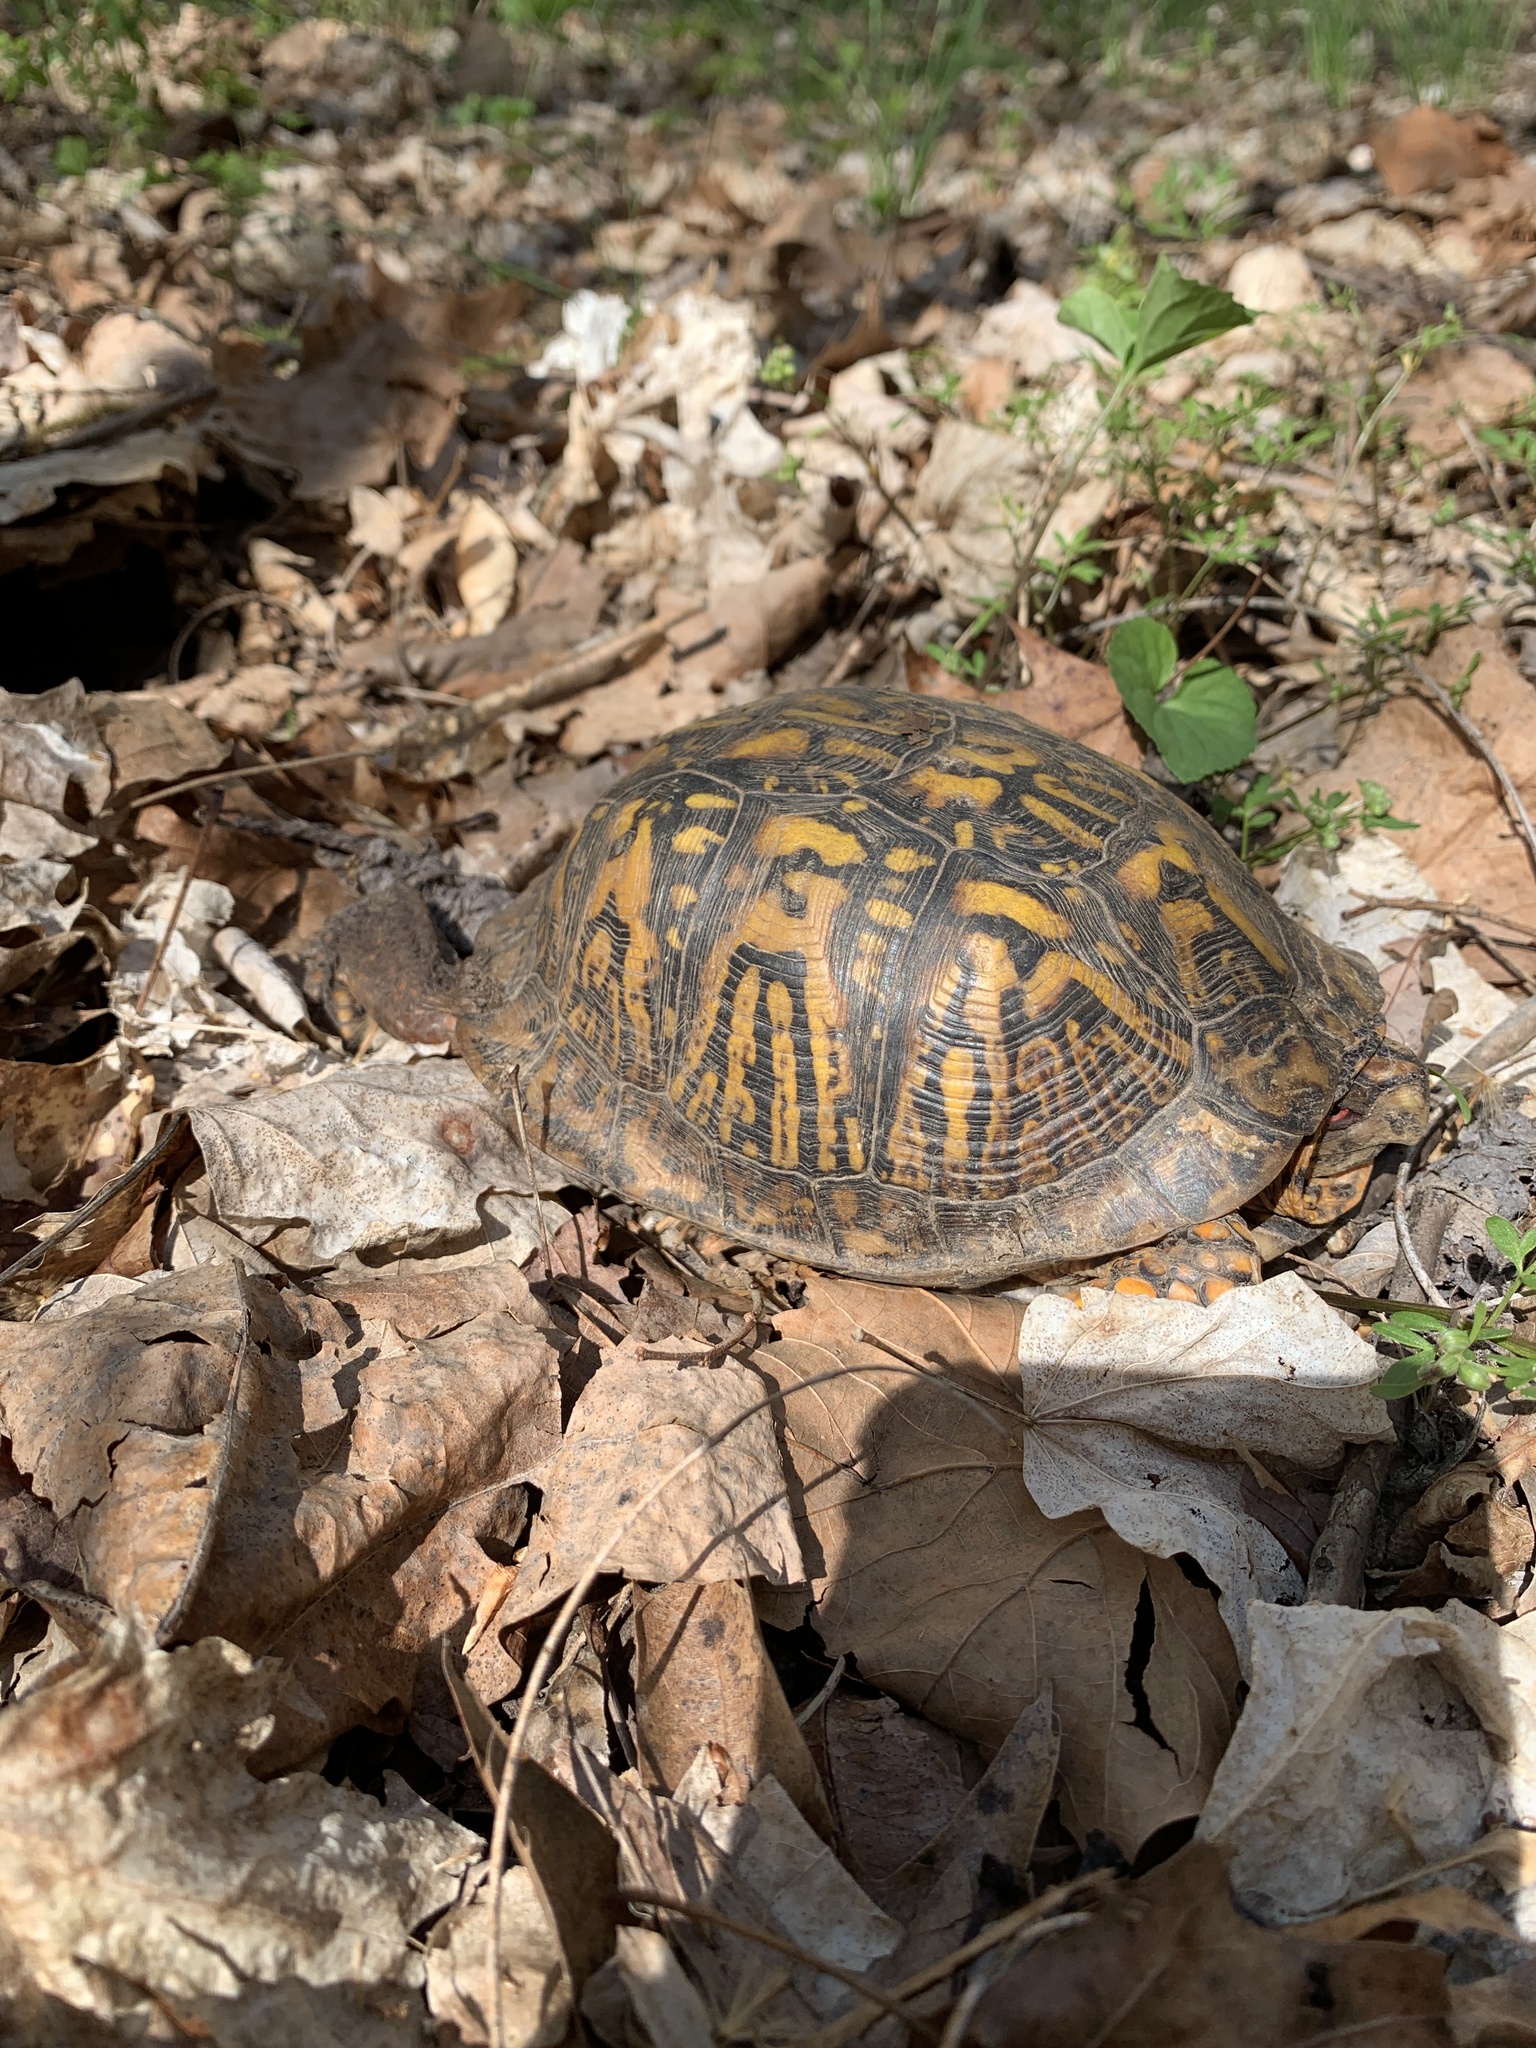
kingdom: Animalia
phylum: Chordata
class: Testudines
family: Emydidae
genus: Terrapene
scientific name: Terrapene carolina
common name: Common box turtle
